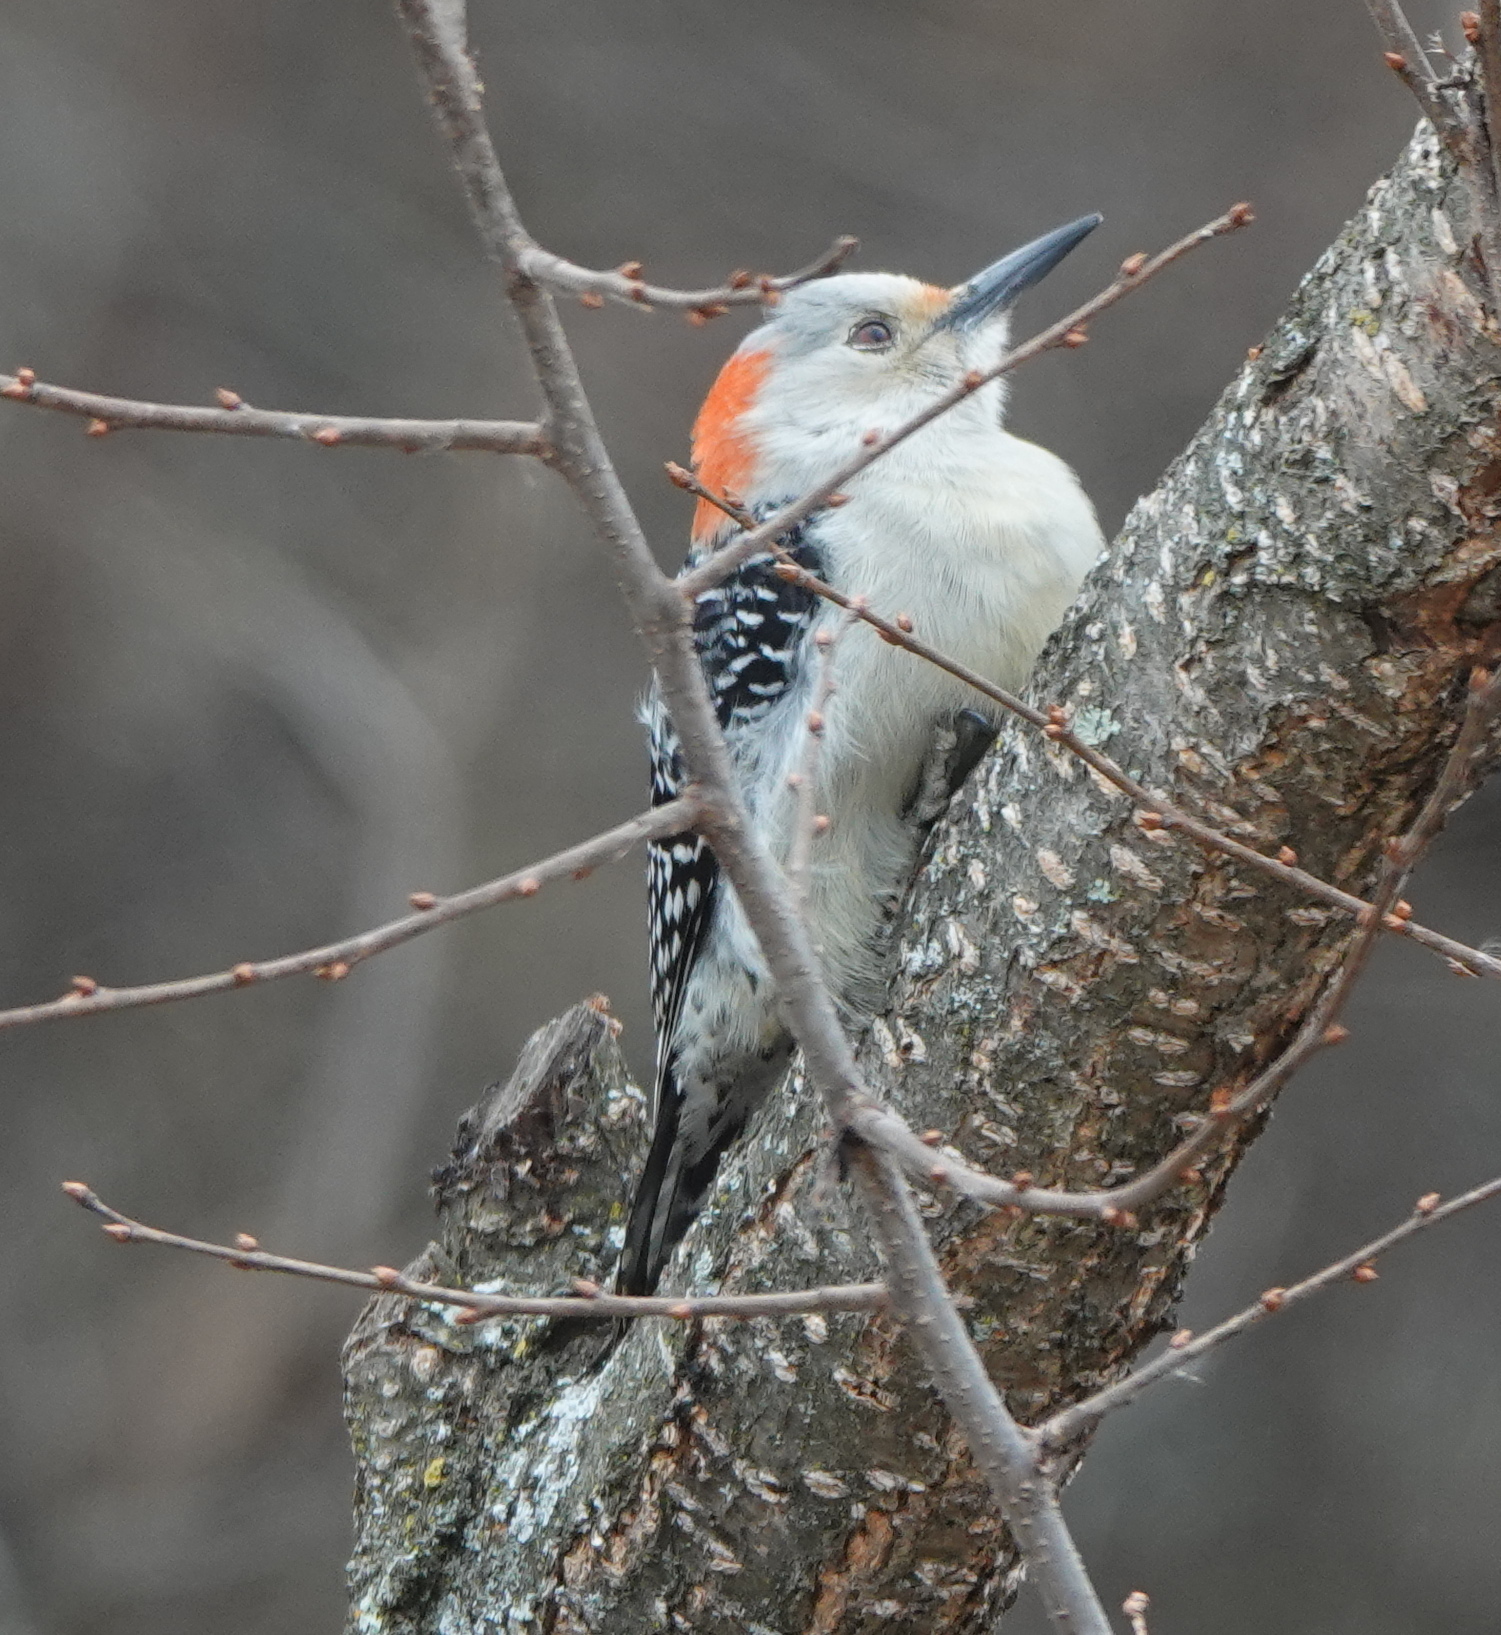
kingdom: Animalia
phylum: Chordata
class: Aves
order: Piciformes
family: Picidae
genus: Melanerpes
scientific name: Melanerpes carolinus
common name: Red-bellied woodpecker
